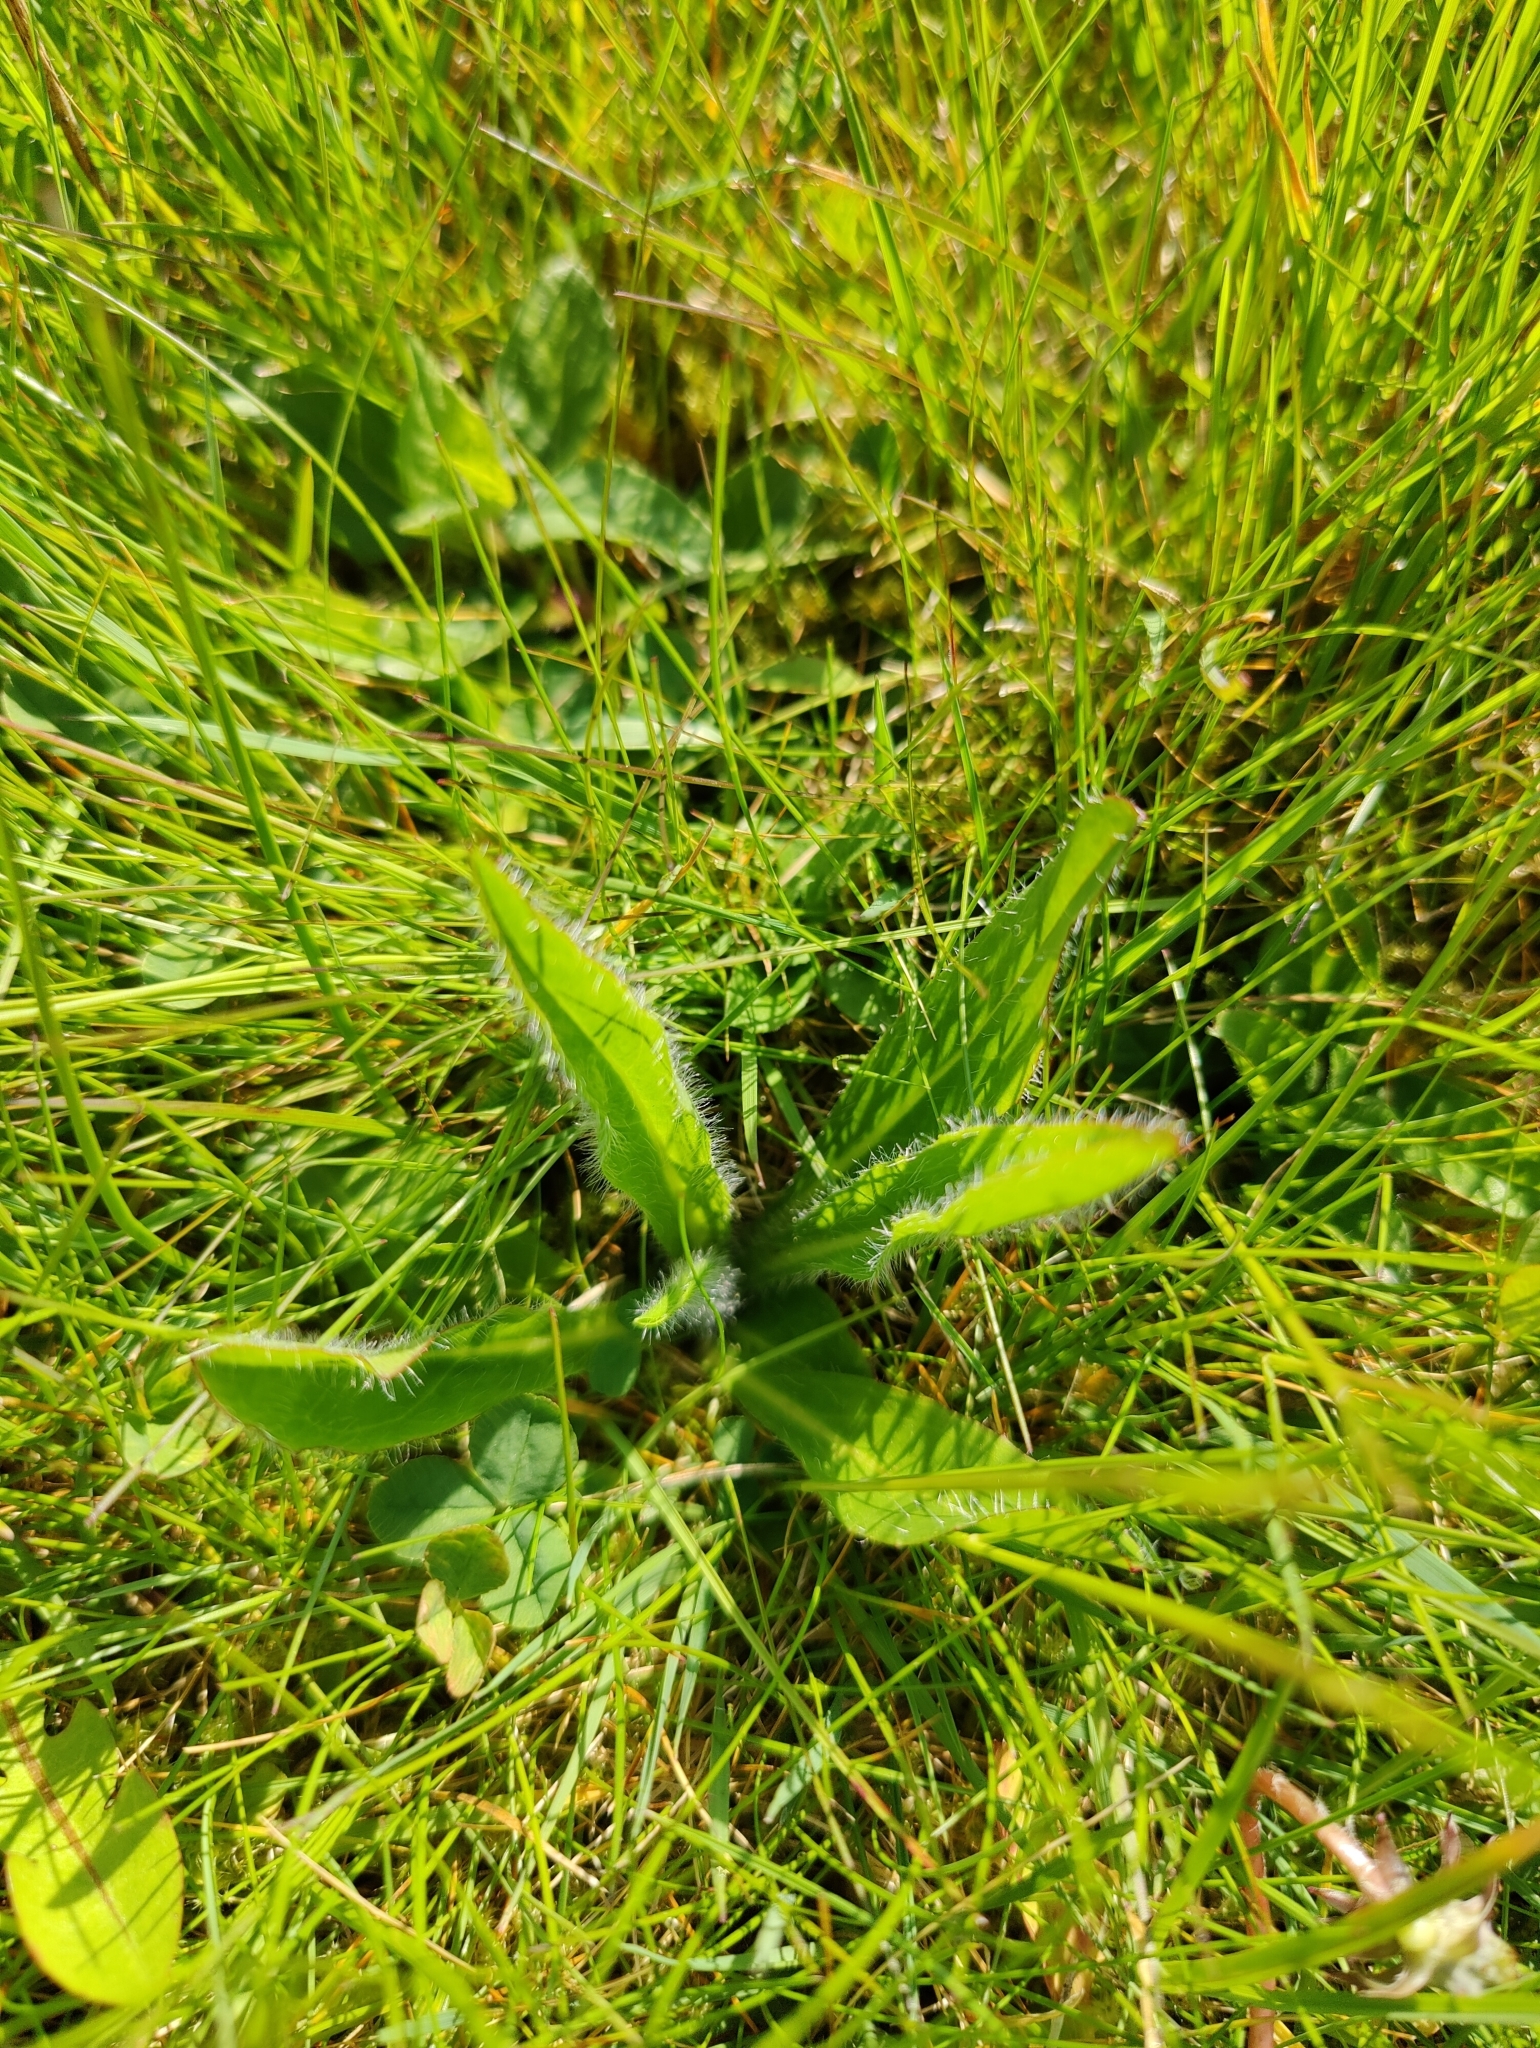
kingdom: Plantae
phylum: Tracheophyta
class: Magnoliopsida
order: Asterales
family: Asteraceae
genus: Pilosella
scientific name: Pilosella aurantiaca
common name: Fox-and-cubs
